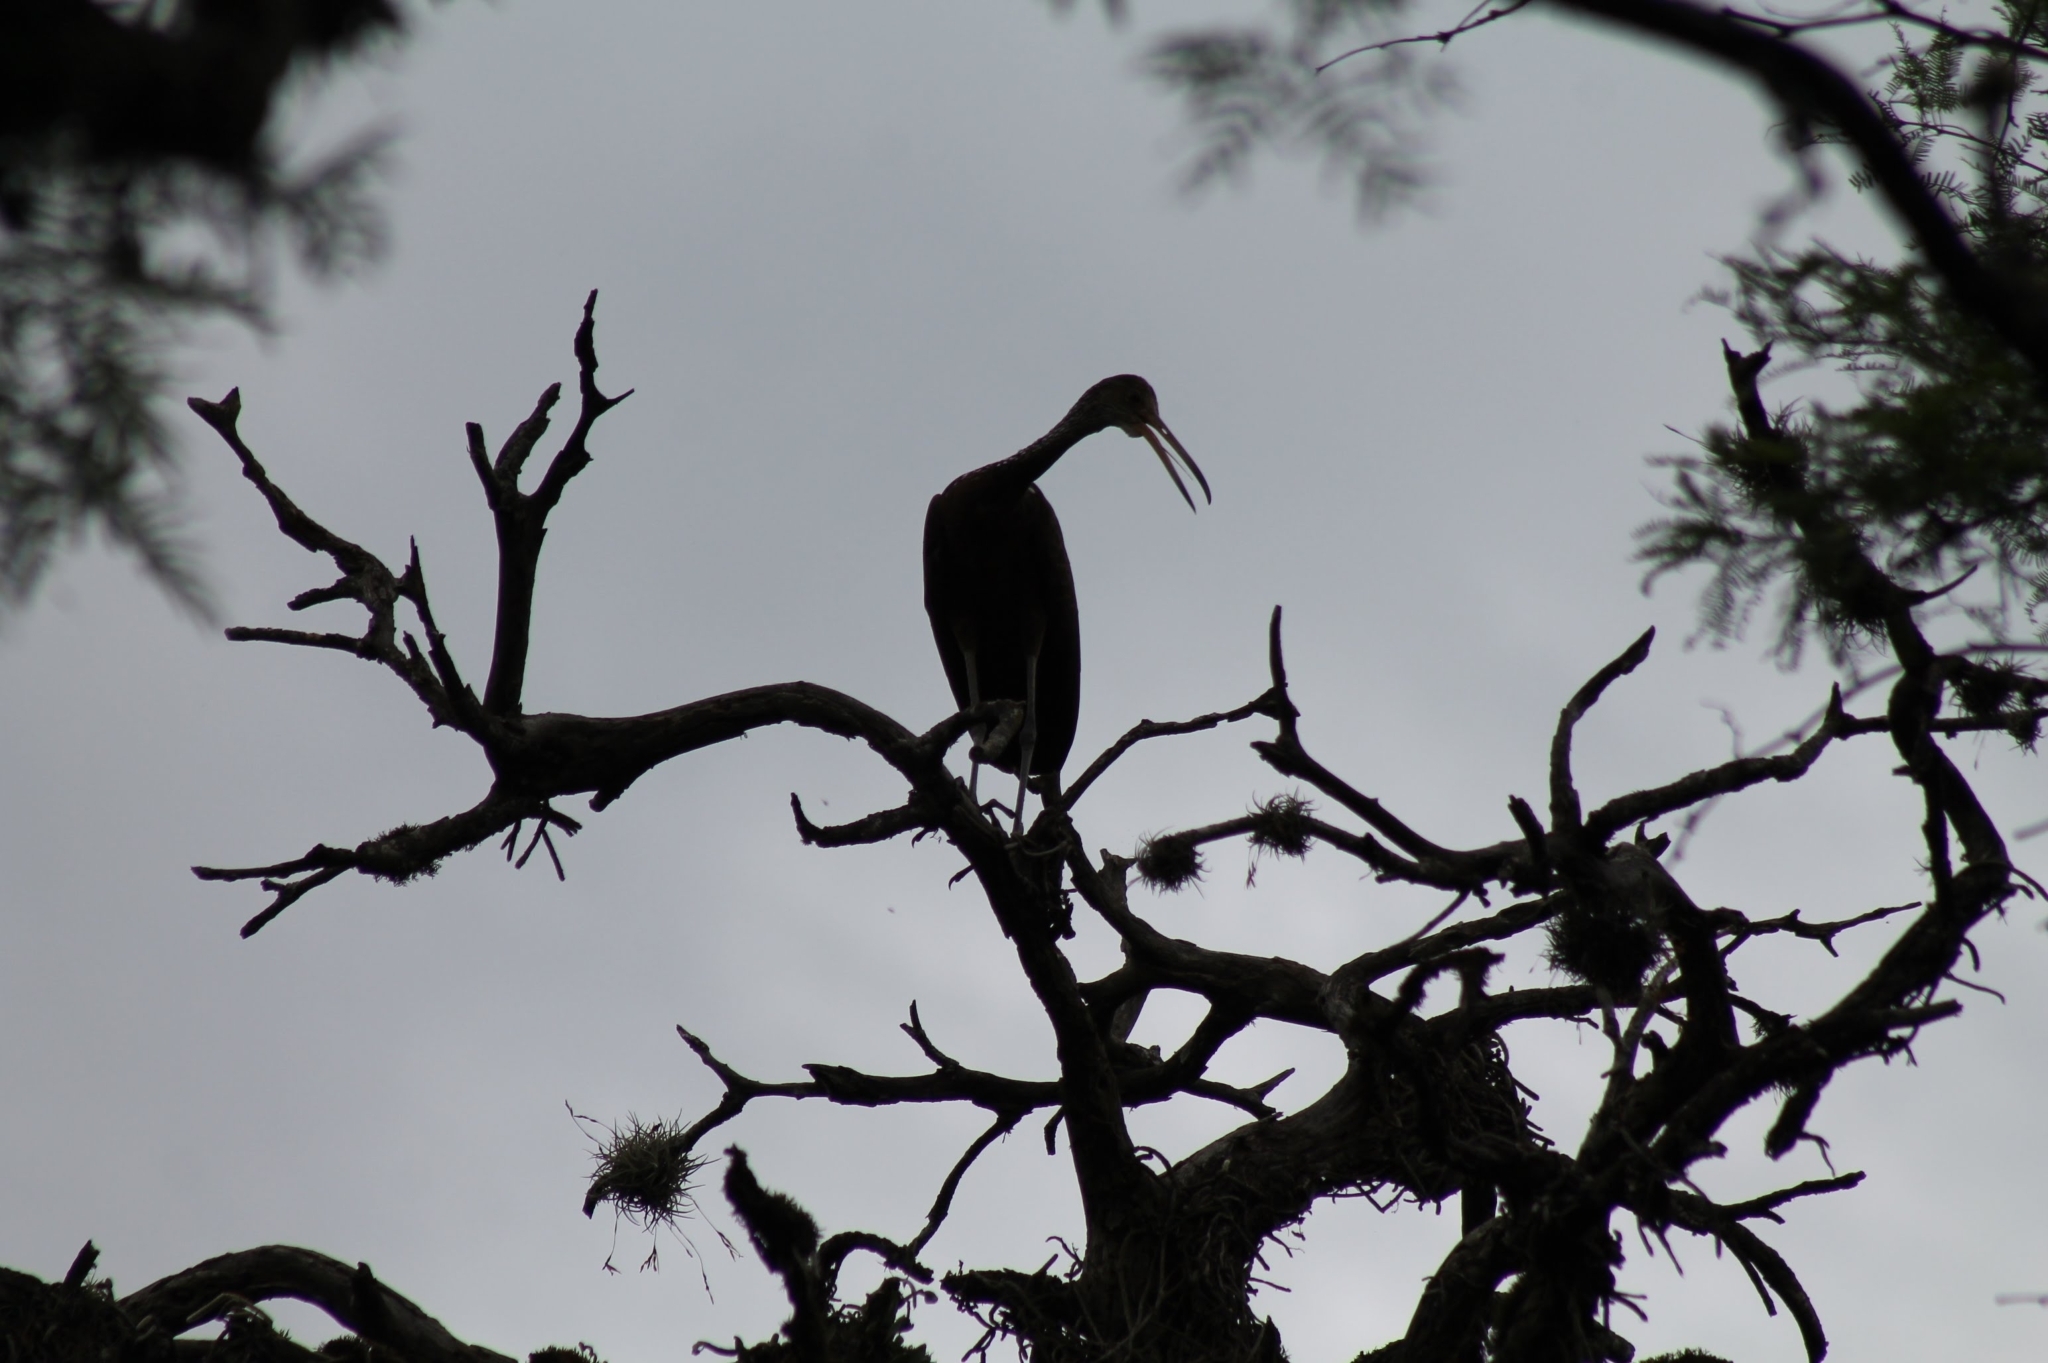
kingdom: Animalia
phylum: Chordata
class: Aves
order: Gruiformes
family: Aramidae
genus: Aramus
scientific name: Aramus guarauna
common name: Limpkin
